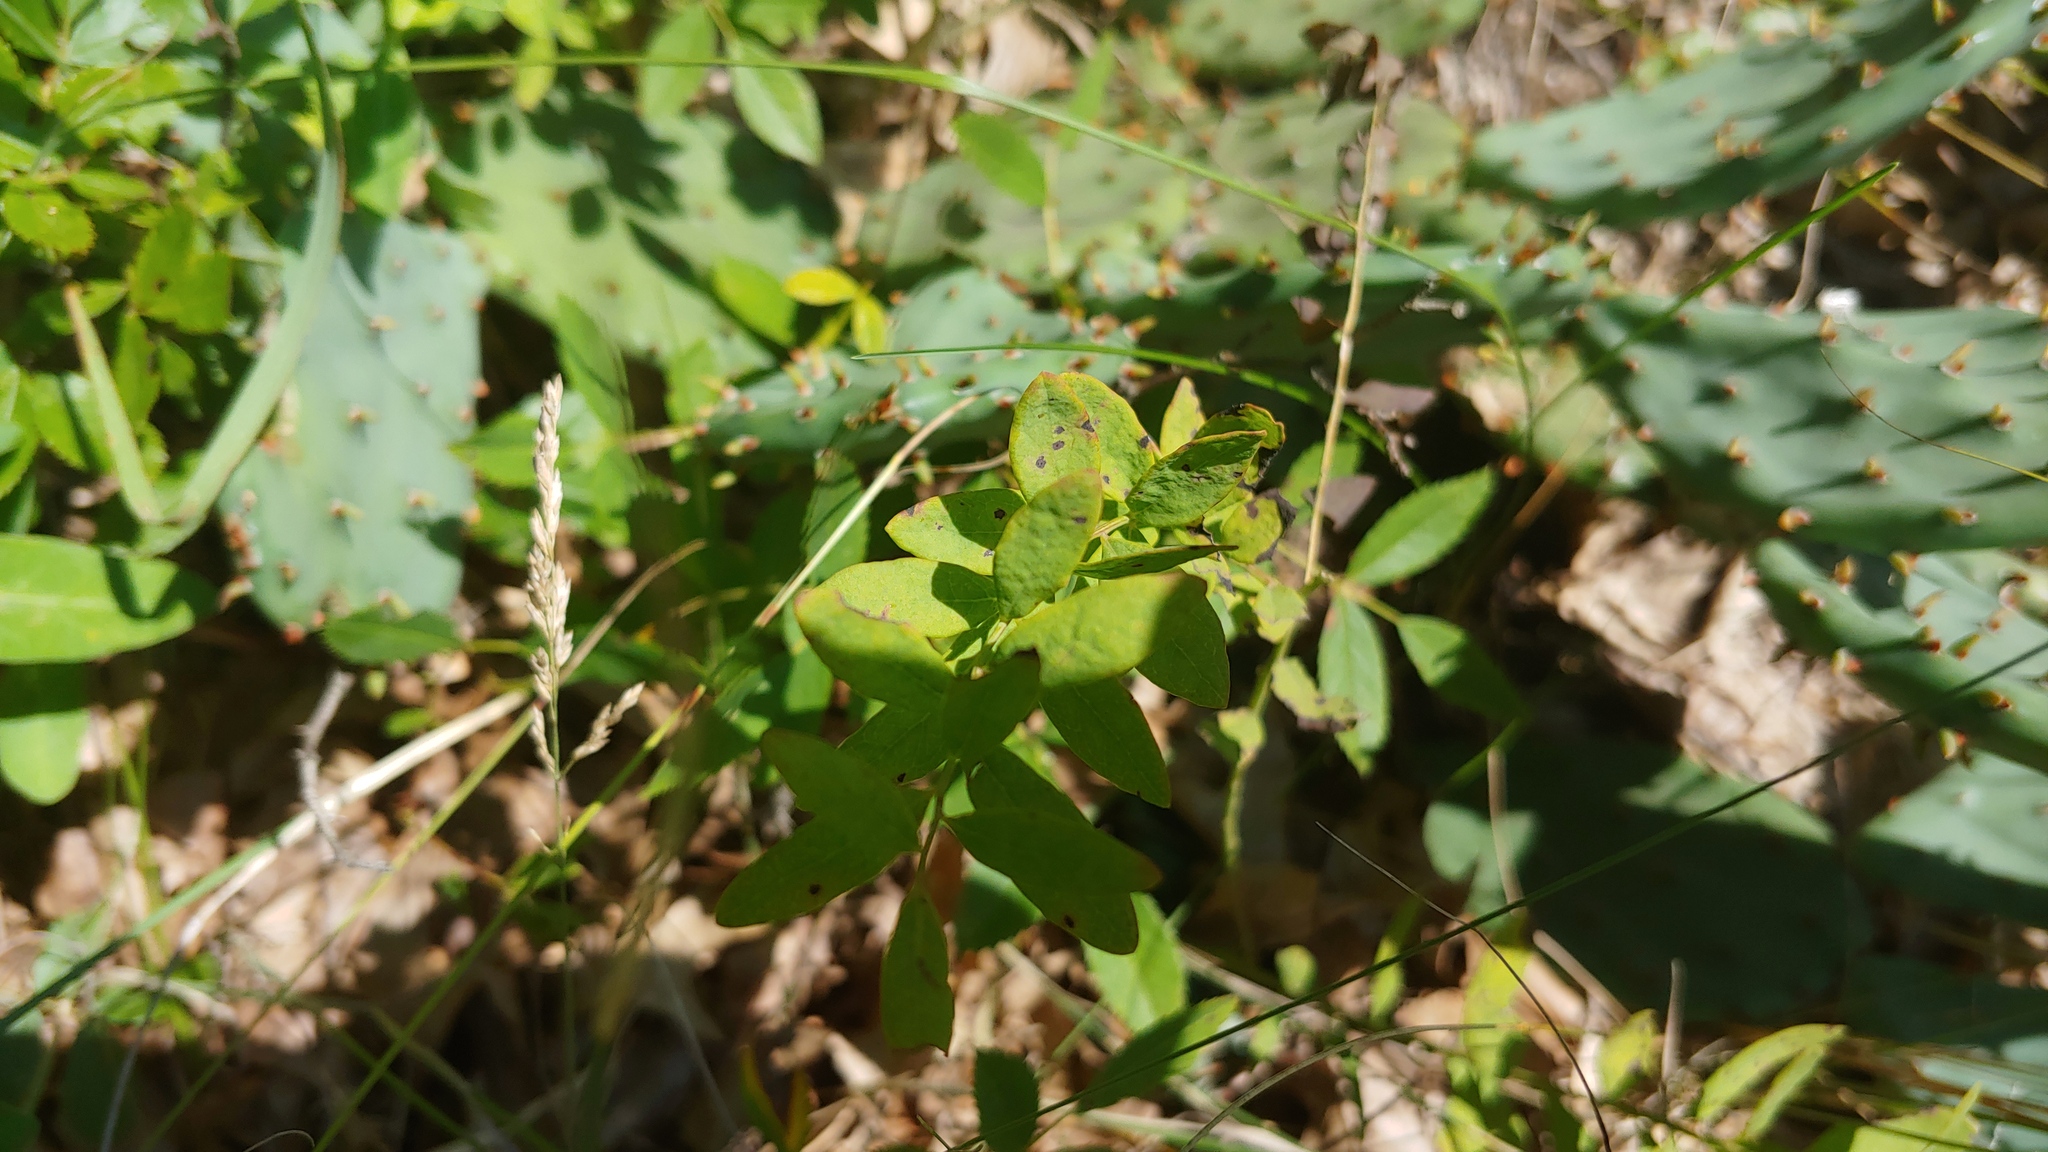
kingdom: Plantae
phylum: Tracheophyta
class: Magnoliopsida
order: Santalales
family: Comandraceae
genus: Comandra
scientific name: Comandra umbellata
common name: Bastard toadflax
